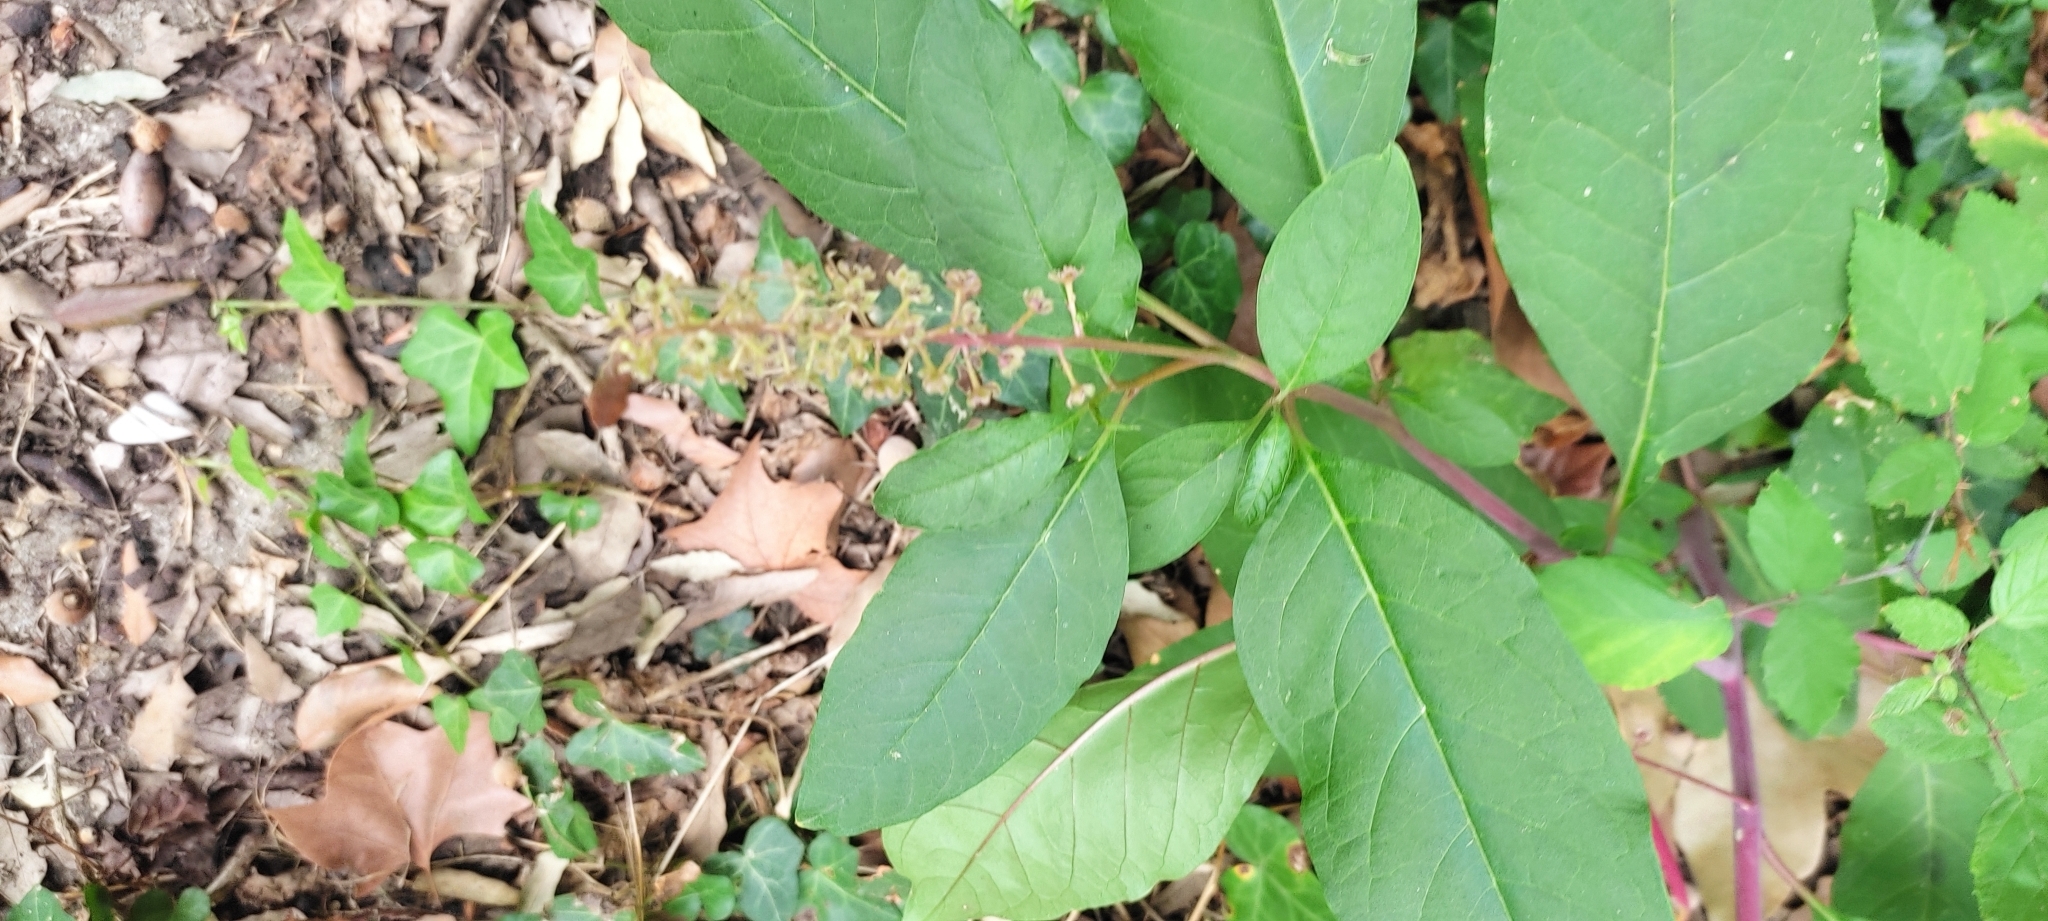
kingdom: Plantae
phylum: Tracheophyta
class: Magnoliopsida
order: Caryophyllales
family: Phytolaccaceae
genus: Phytolacca
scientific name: Phytolacca americana
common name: American pokeweed
